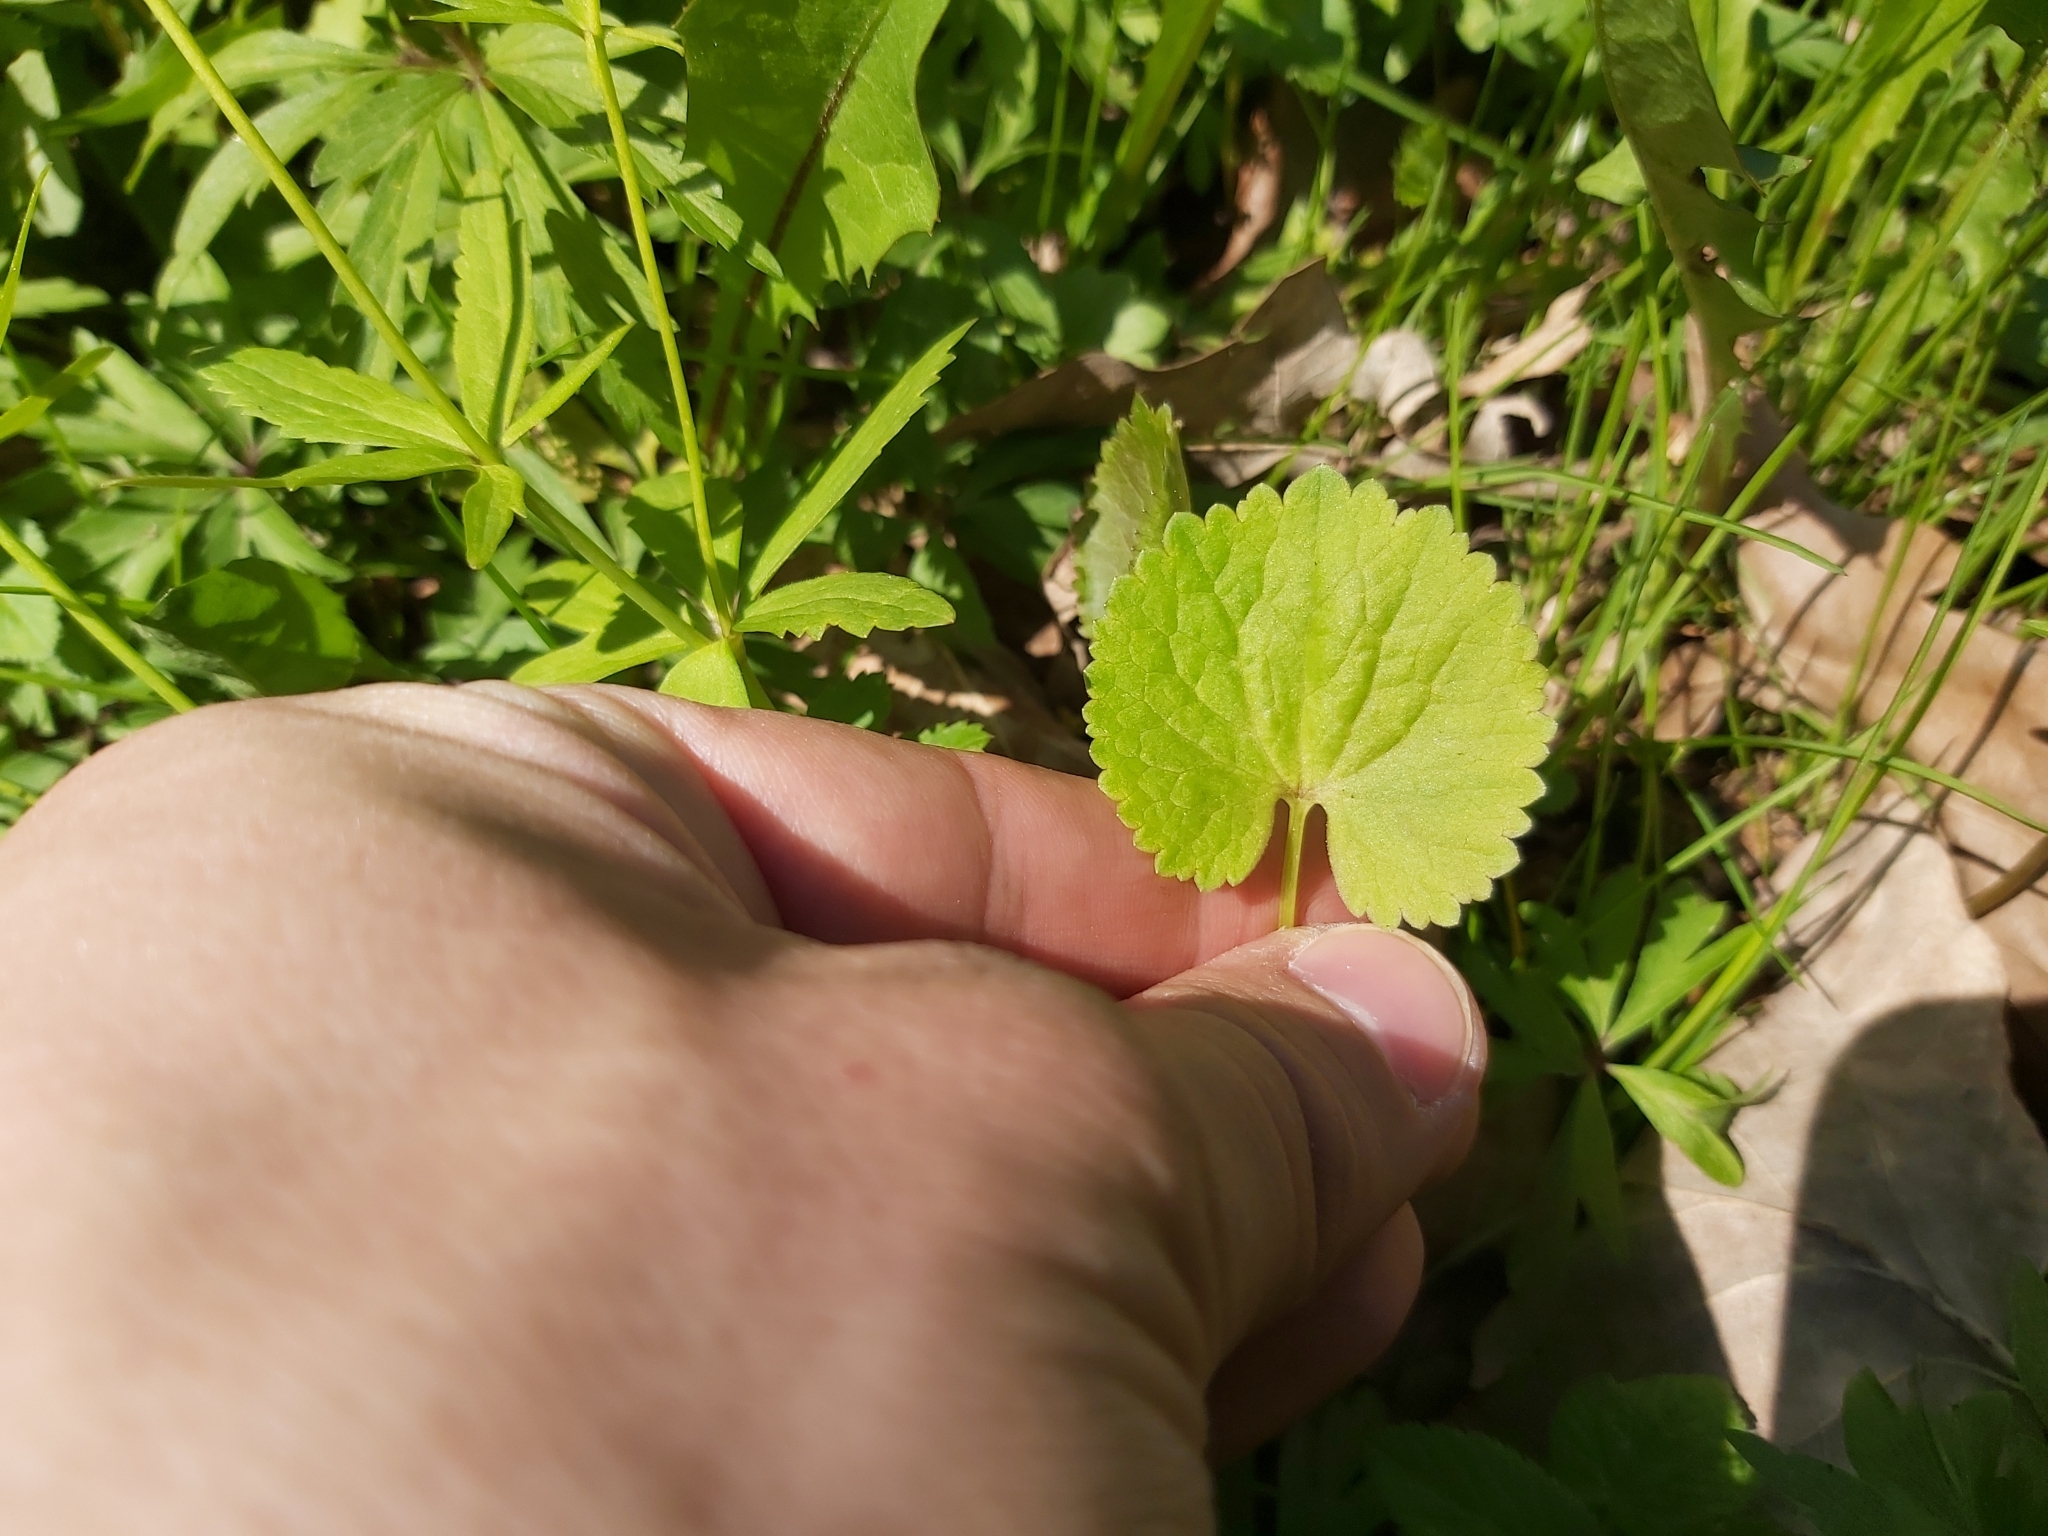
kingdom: Plantae
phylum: Tracheophyta
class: Magnoliopsida
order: Ranunculales
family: Ranunculaceae
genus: Ranunculus
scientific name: Ranunculus cassubicus
